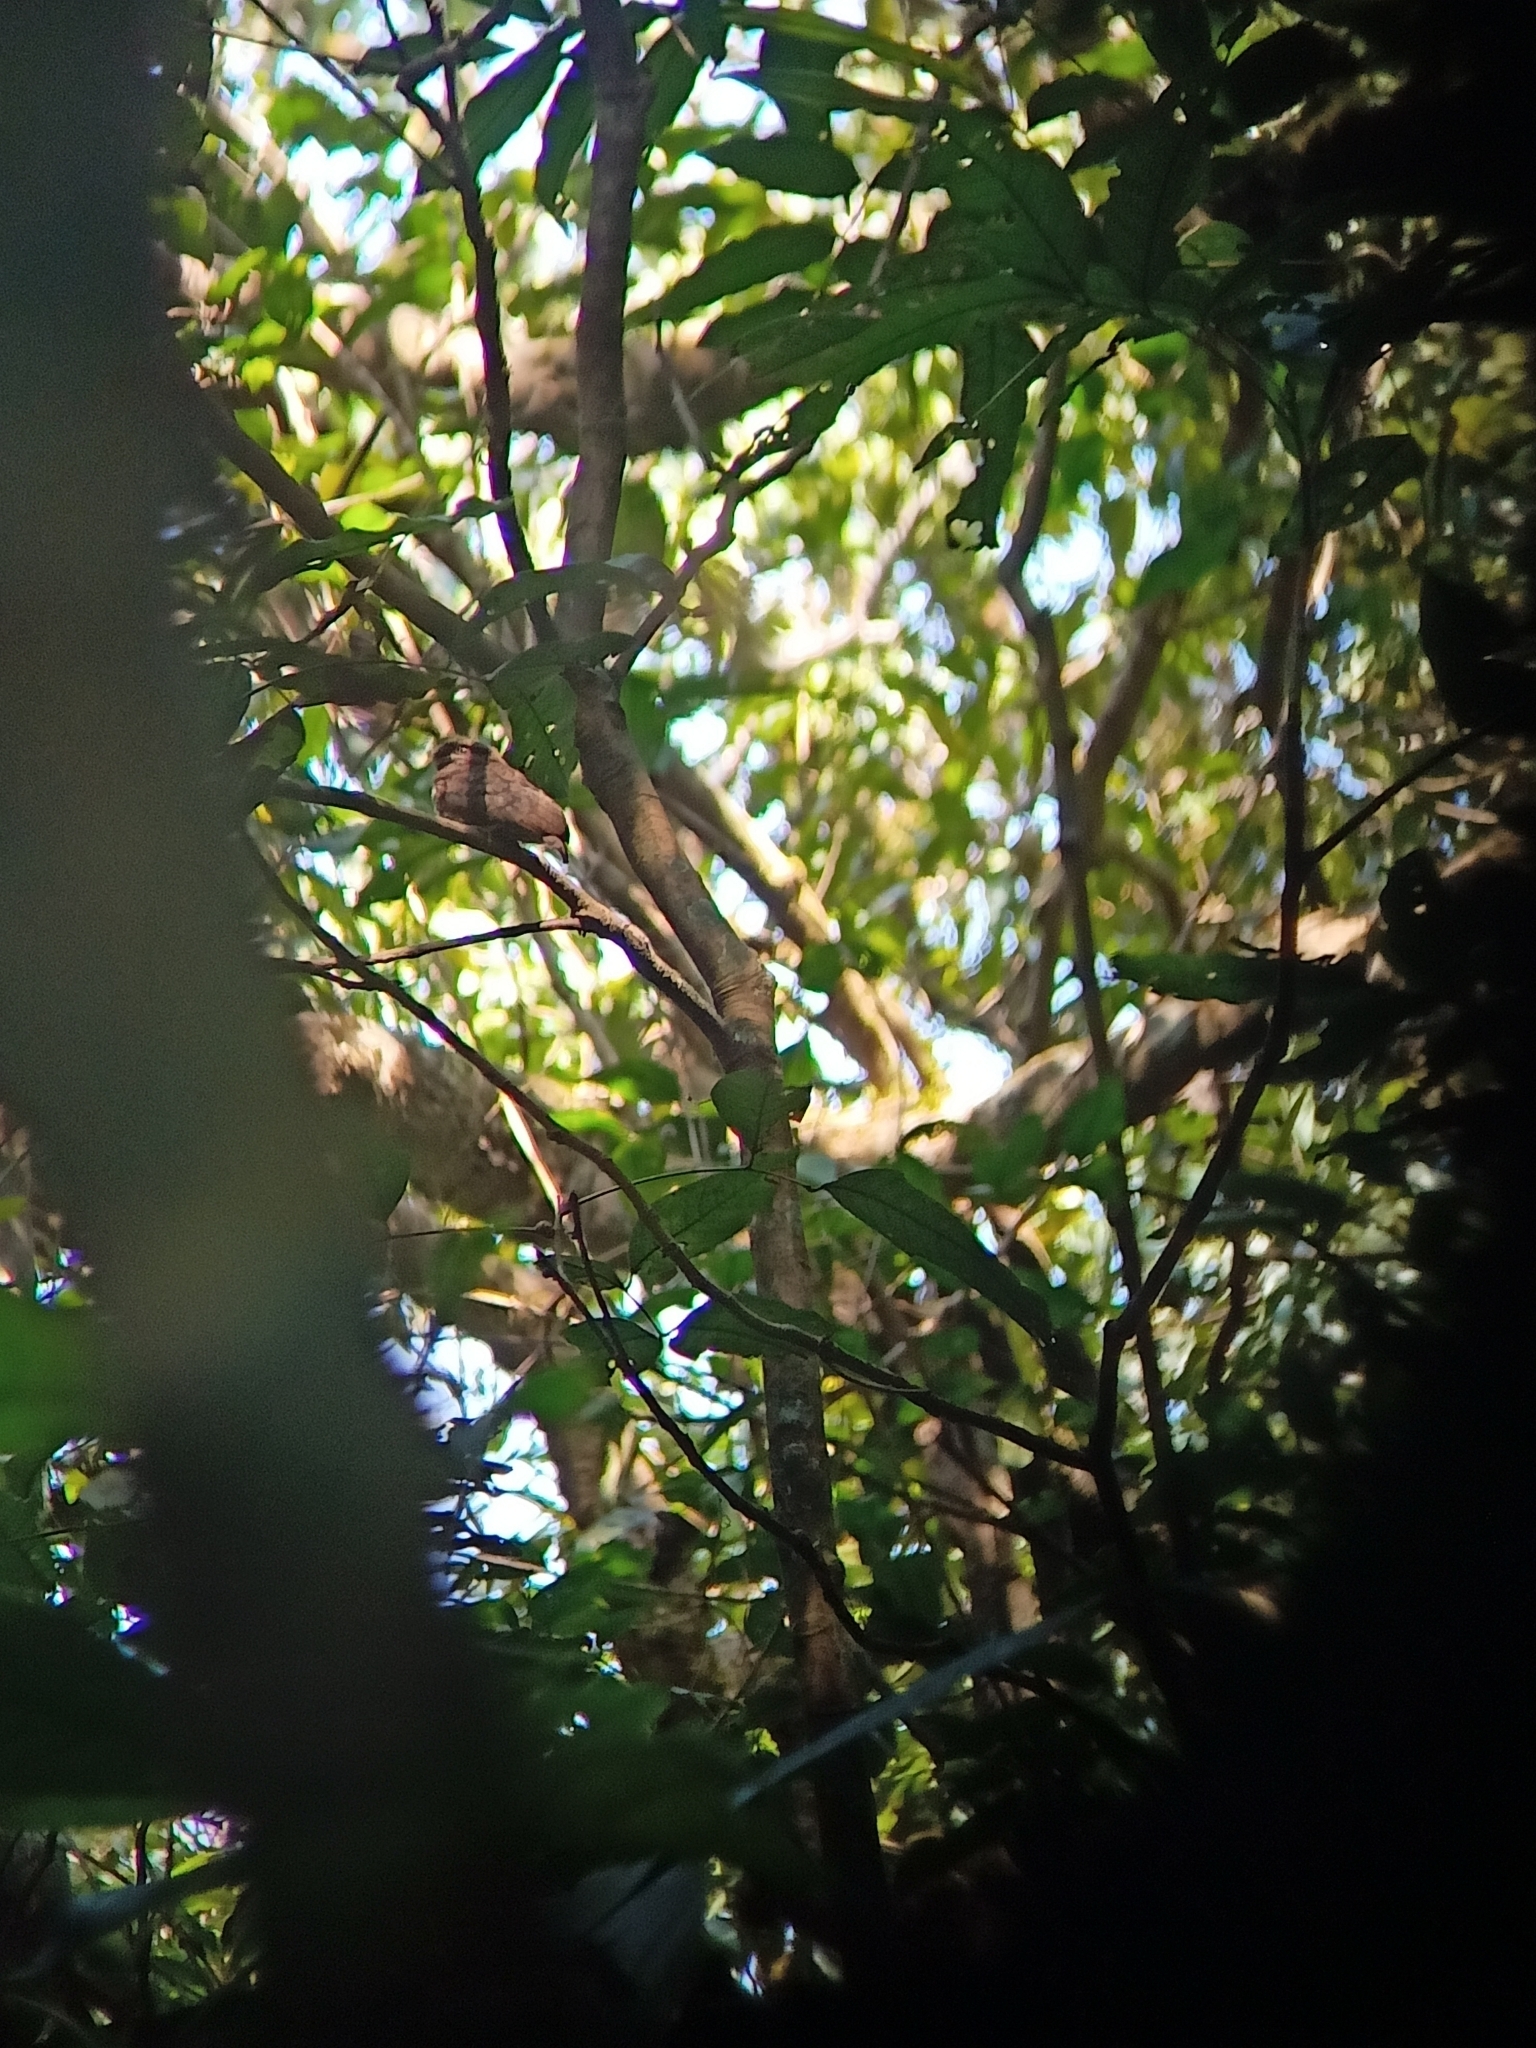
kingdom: Animalia
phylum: Chordata
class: Aves
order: Caprimulgiformes
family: Podargidae
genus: Batrachostomus
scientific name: Batrachostomus moniliger
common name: Sri lanka frogmouth
